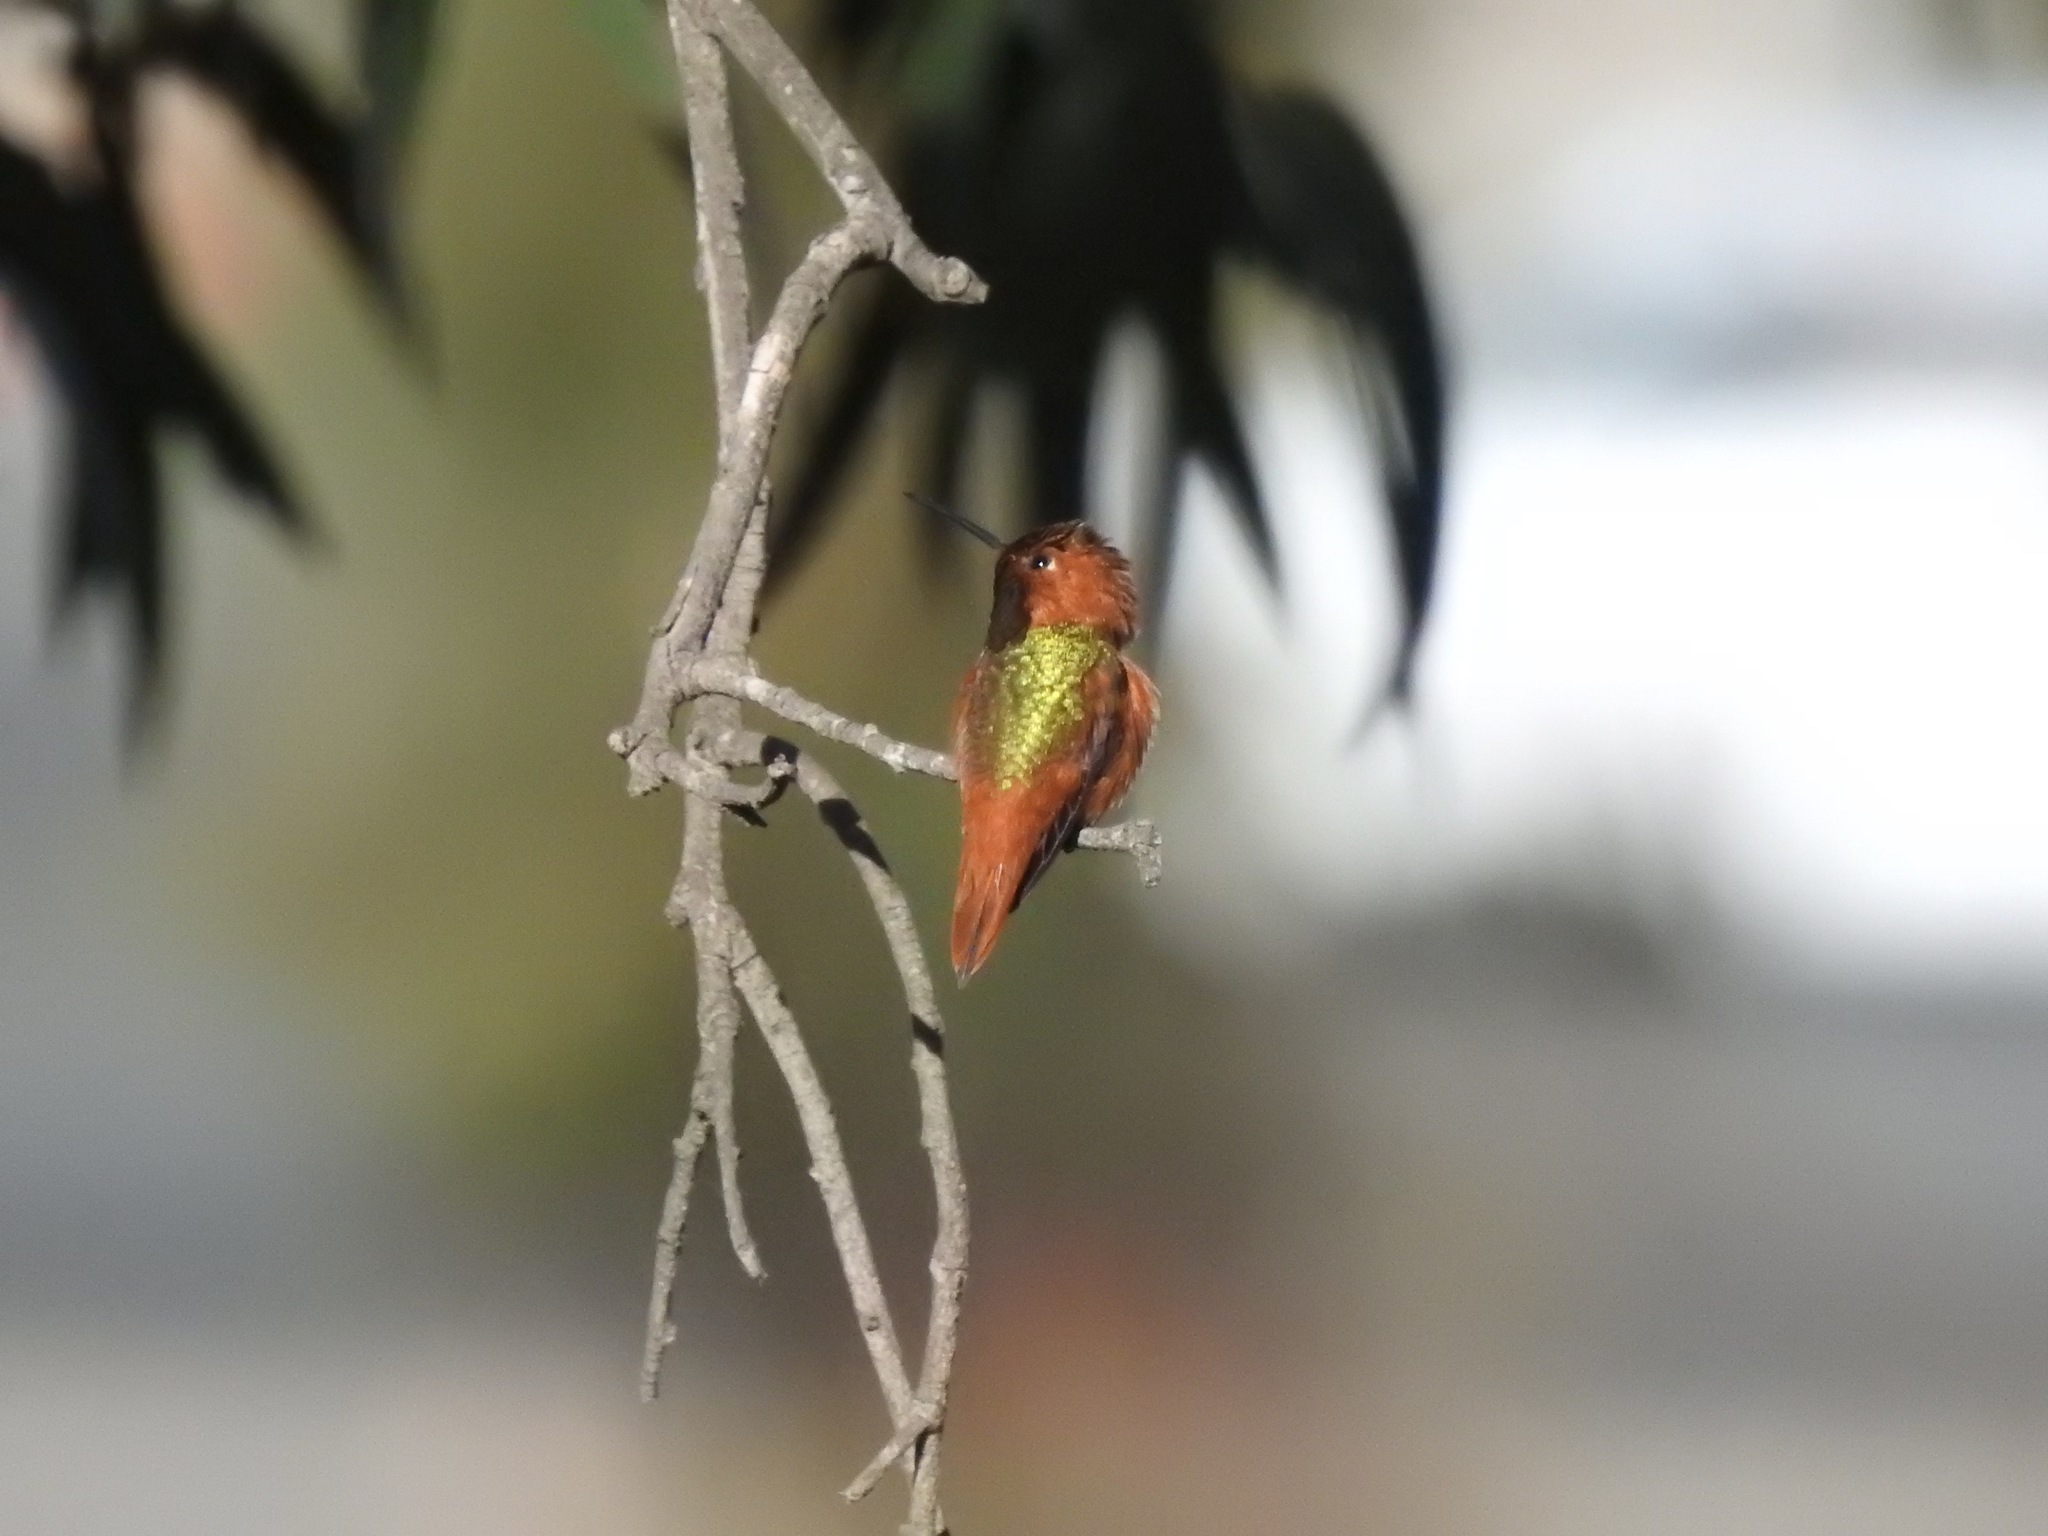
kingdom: Animalia
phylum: Chordata
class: Aves
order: Apodiformes
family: Trochilidae
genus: Selasphorus
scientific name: Selasphorus sasin
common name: Allen's hummingbird
